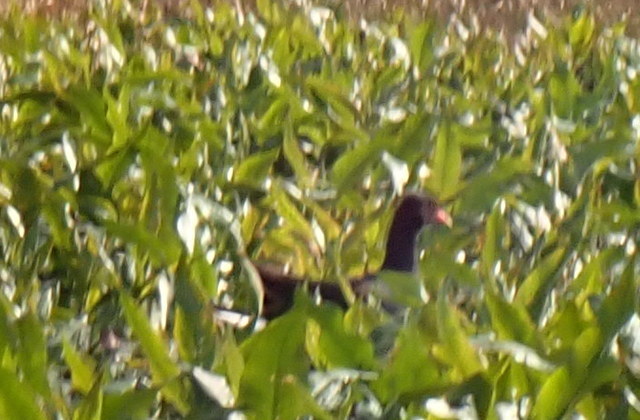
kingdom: Animalia
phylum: Chordata
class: Aves
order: Gruiformes
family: Rallidae
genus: Gallinula
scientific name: Gallinula chloropus
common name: Common moorhen
